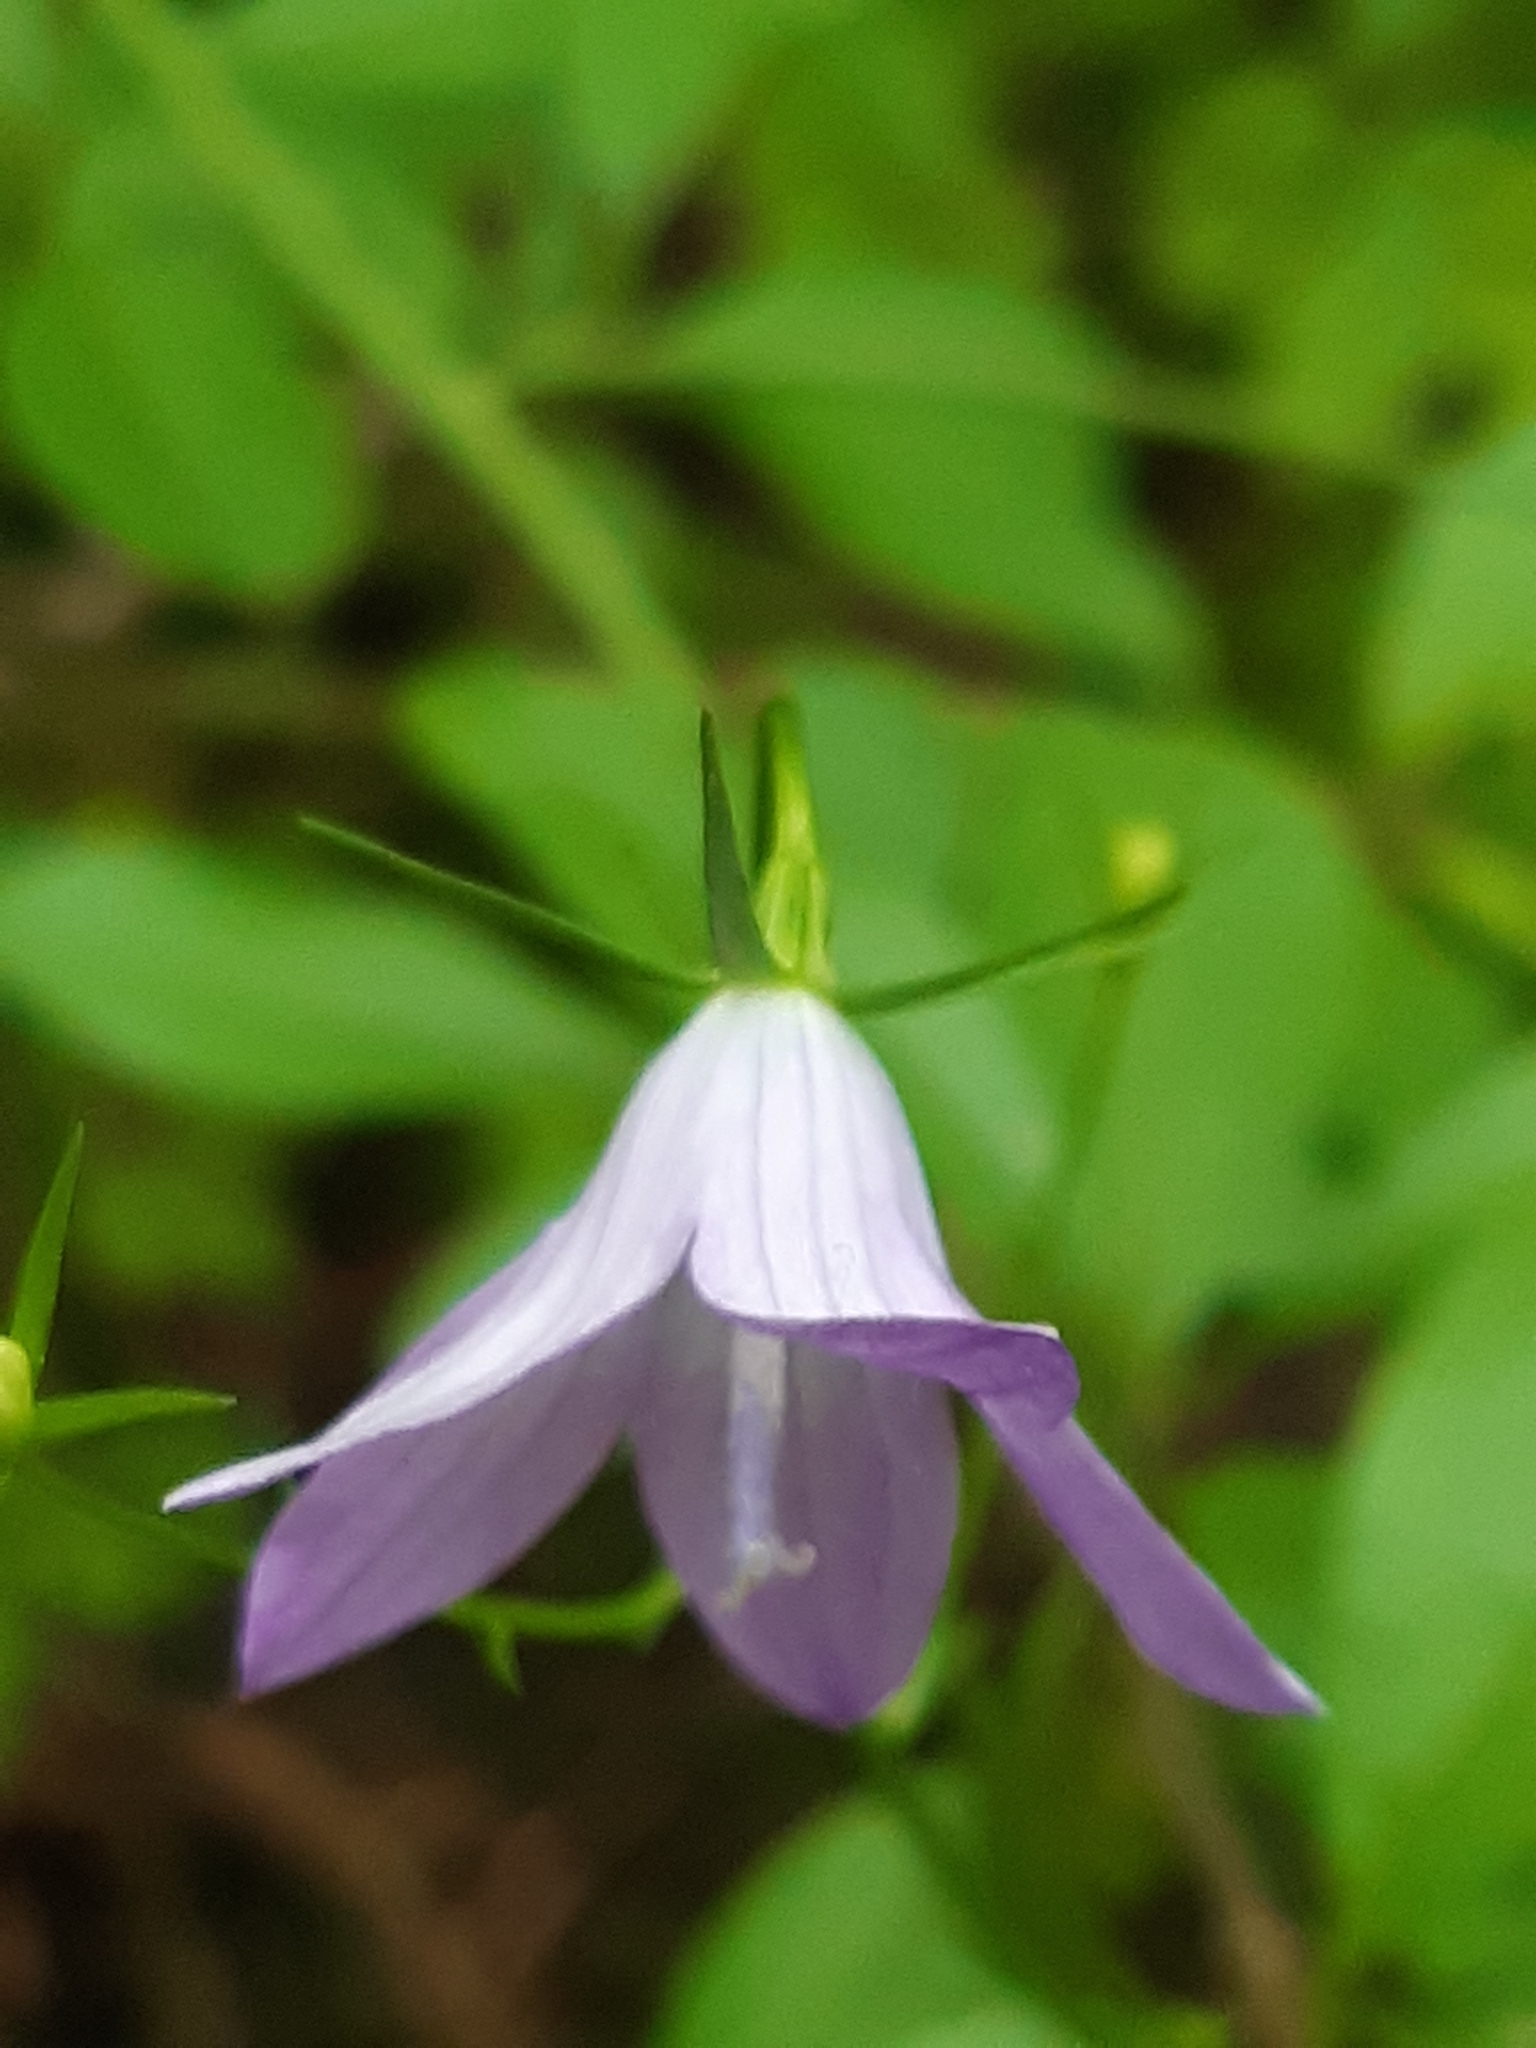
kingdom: Plantae
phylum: Tracheophyta
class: Magnoliopsida
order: Asterales
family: Campanulaceae
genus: Campanula
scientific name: Campanula patula
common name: Spreading bellflower
